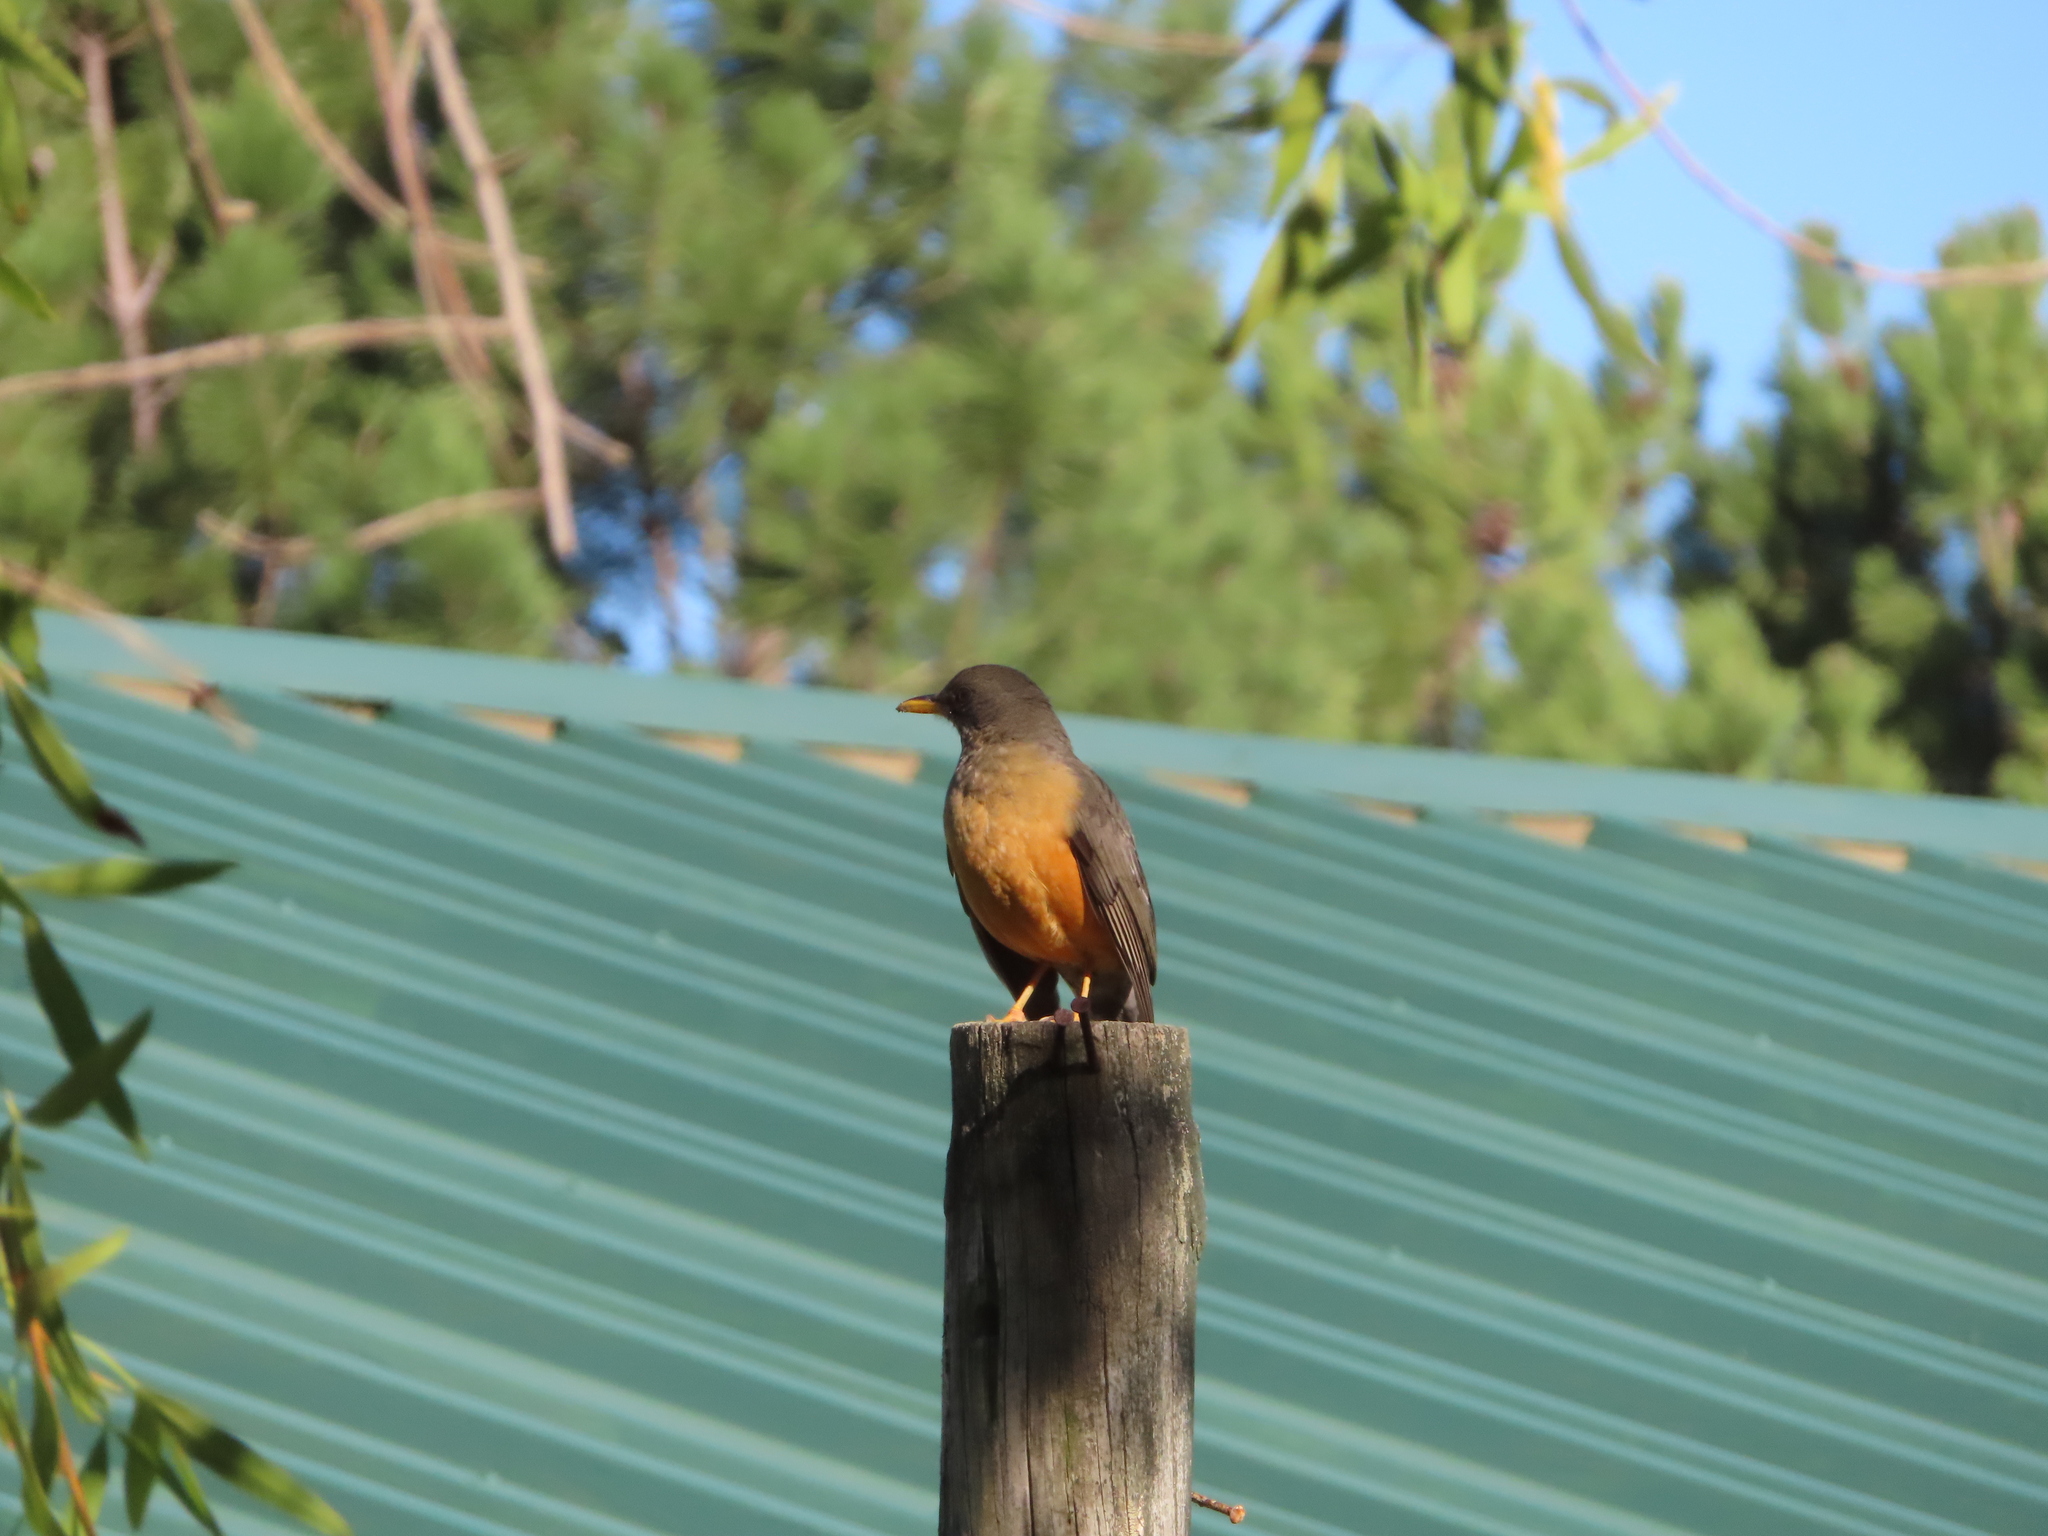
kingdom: Animalia
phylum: Chordata
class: Aves
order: Passeriformes
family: Turdidae
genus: Turdus
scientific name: Turdus olivaceus
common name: Olive thrush
